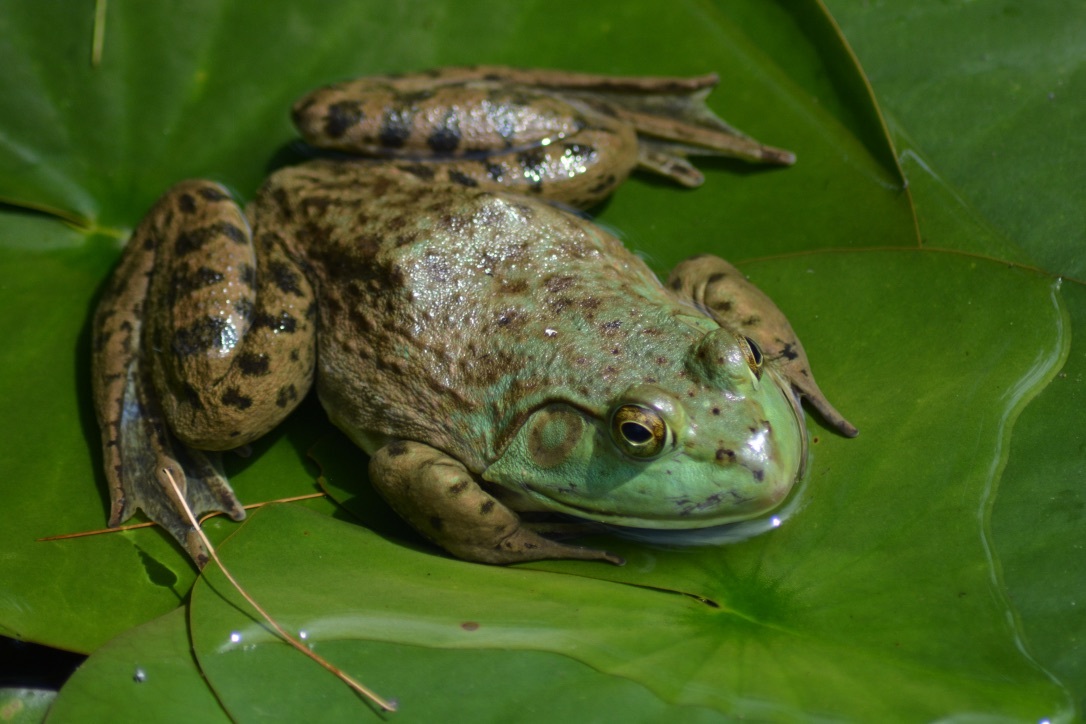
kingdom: Animalia
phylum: Chordata
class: Amphibia
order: Anura
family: Ranidae
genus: Lithobates
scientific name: Lithobates catesbeianus
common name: American bullfrog
